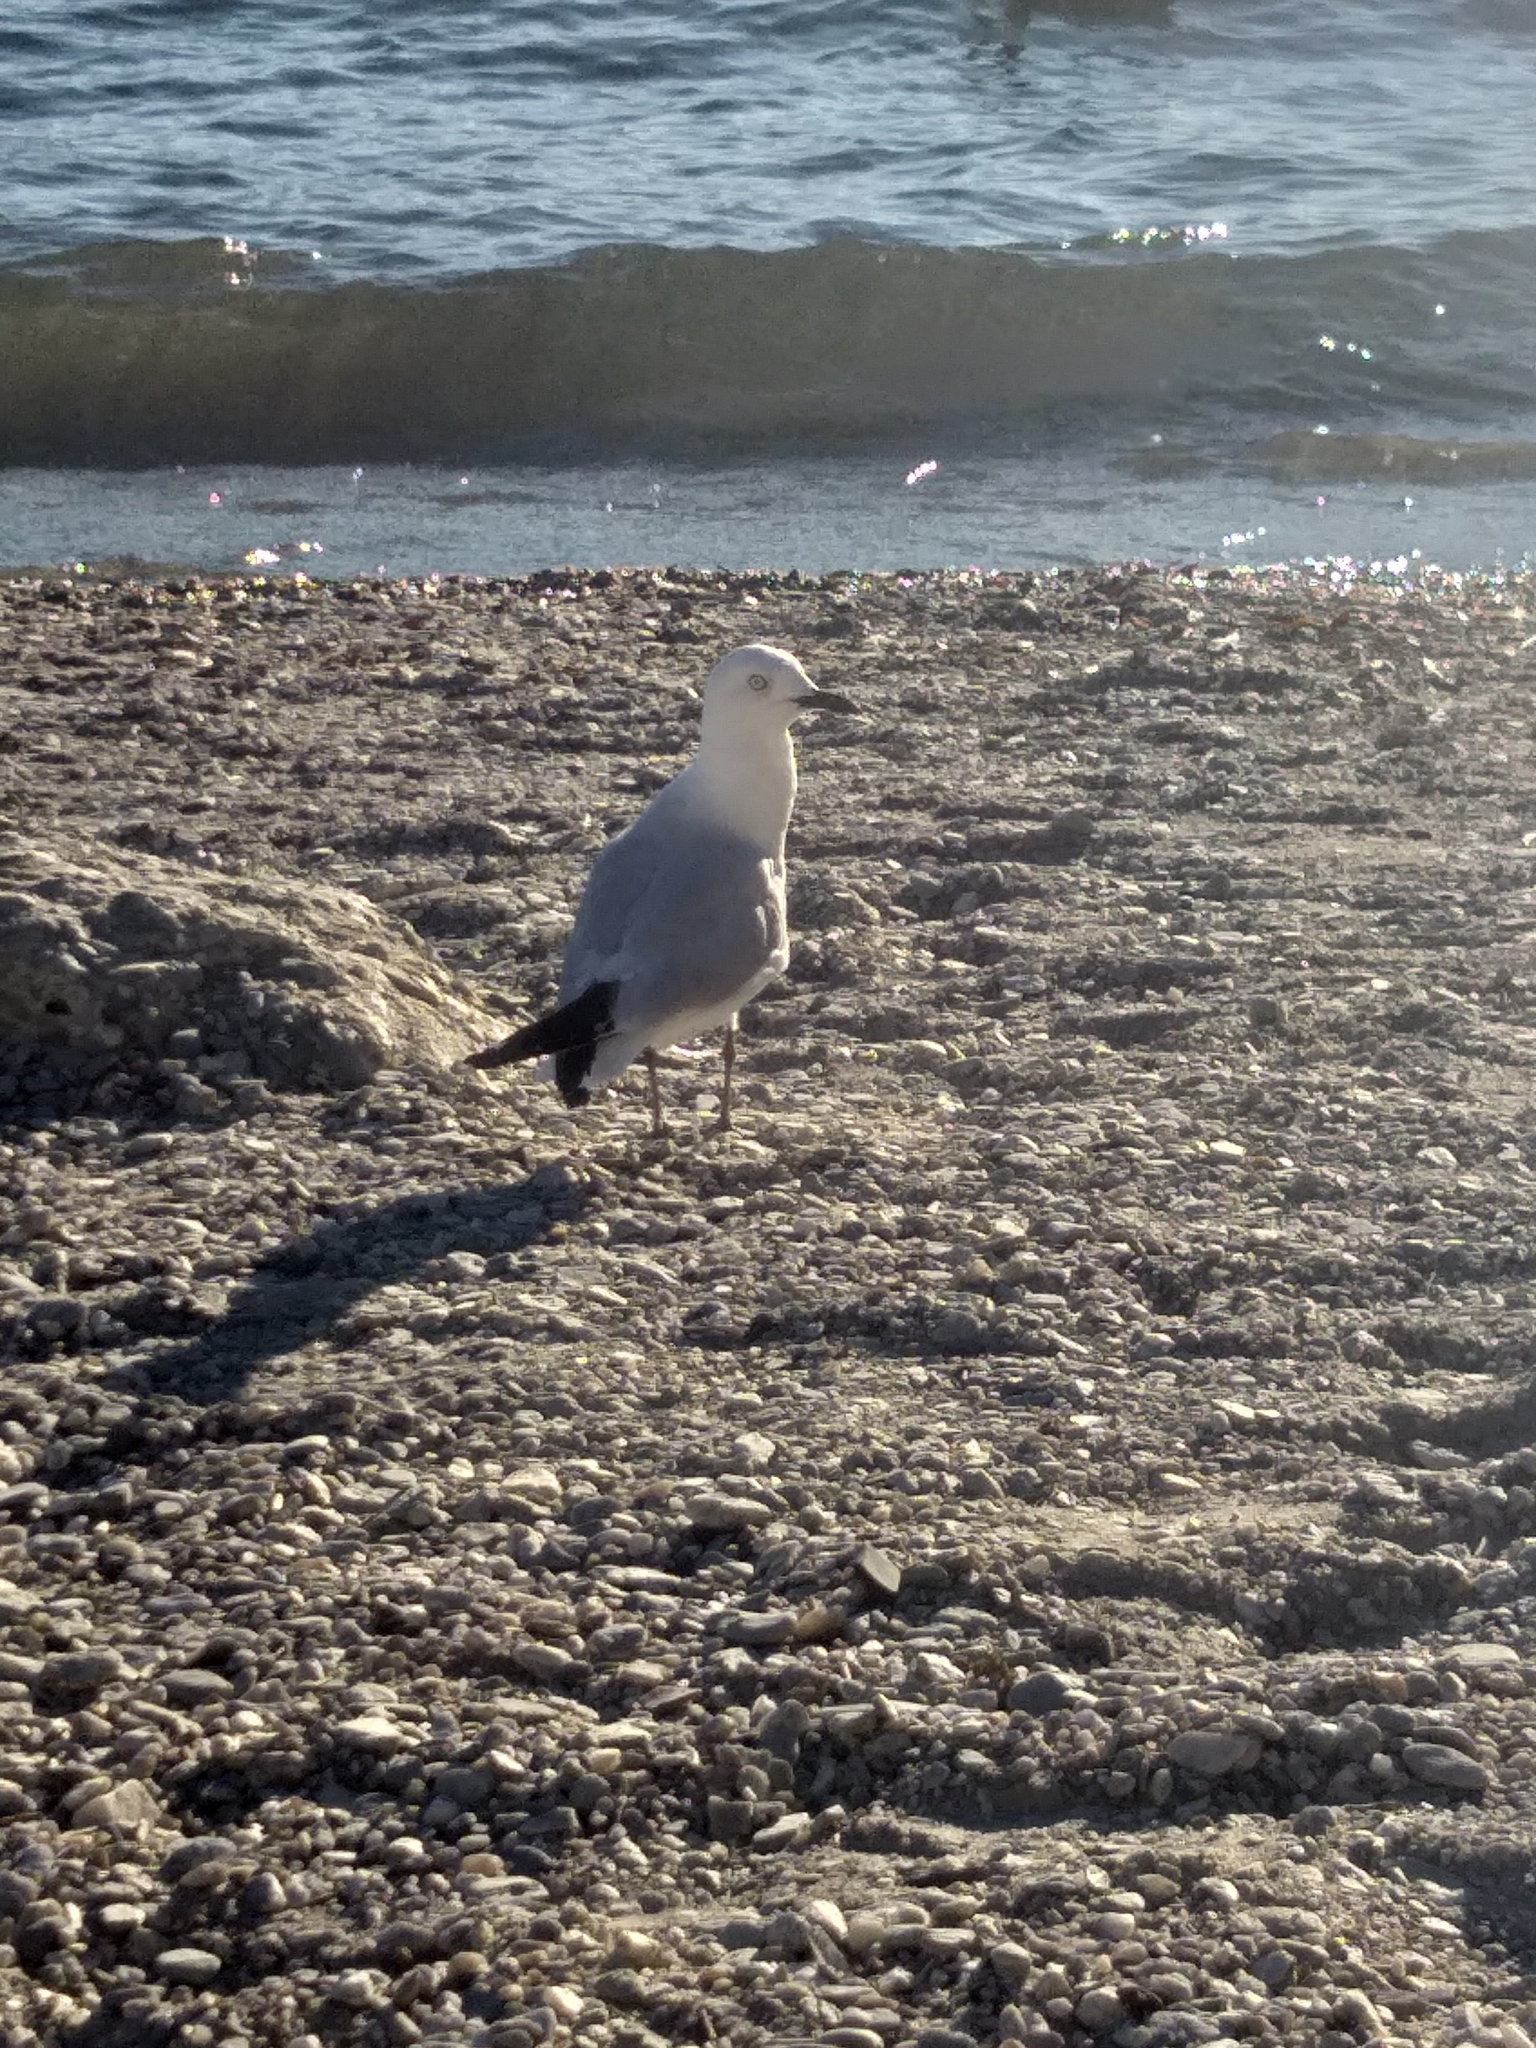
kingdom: Animalia
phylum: Chordata
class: Aves
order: Charadriiformes
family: Laridae
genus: Chroicocephalus
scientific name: Chroicocephalus bulleri
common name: Black-billed gull
